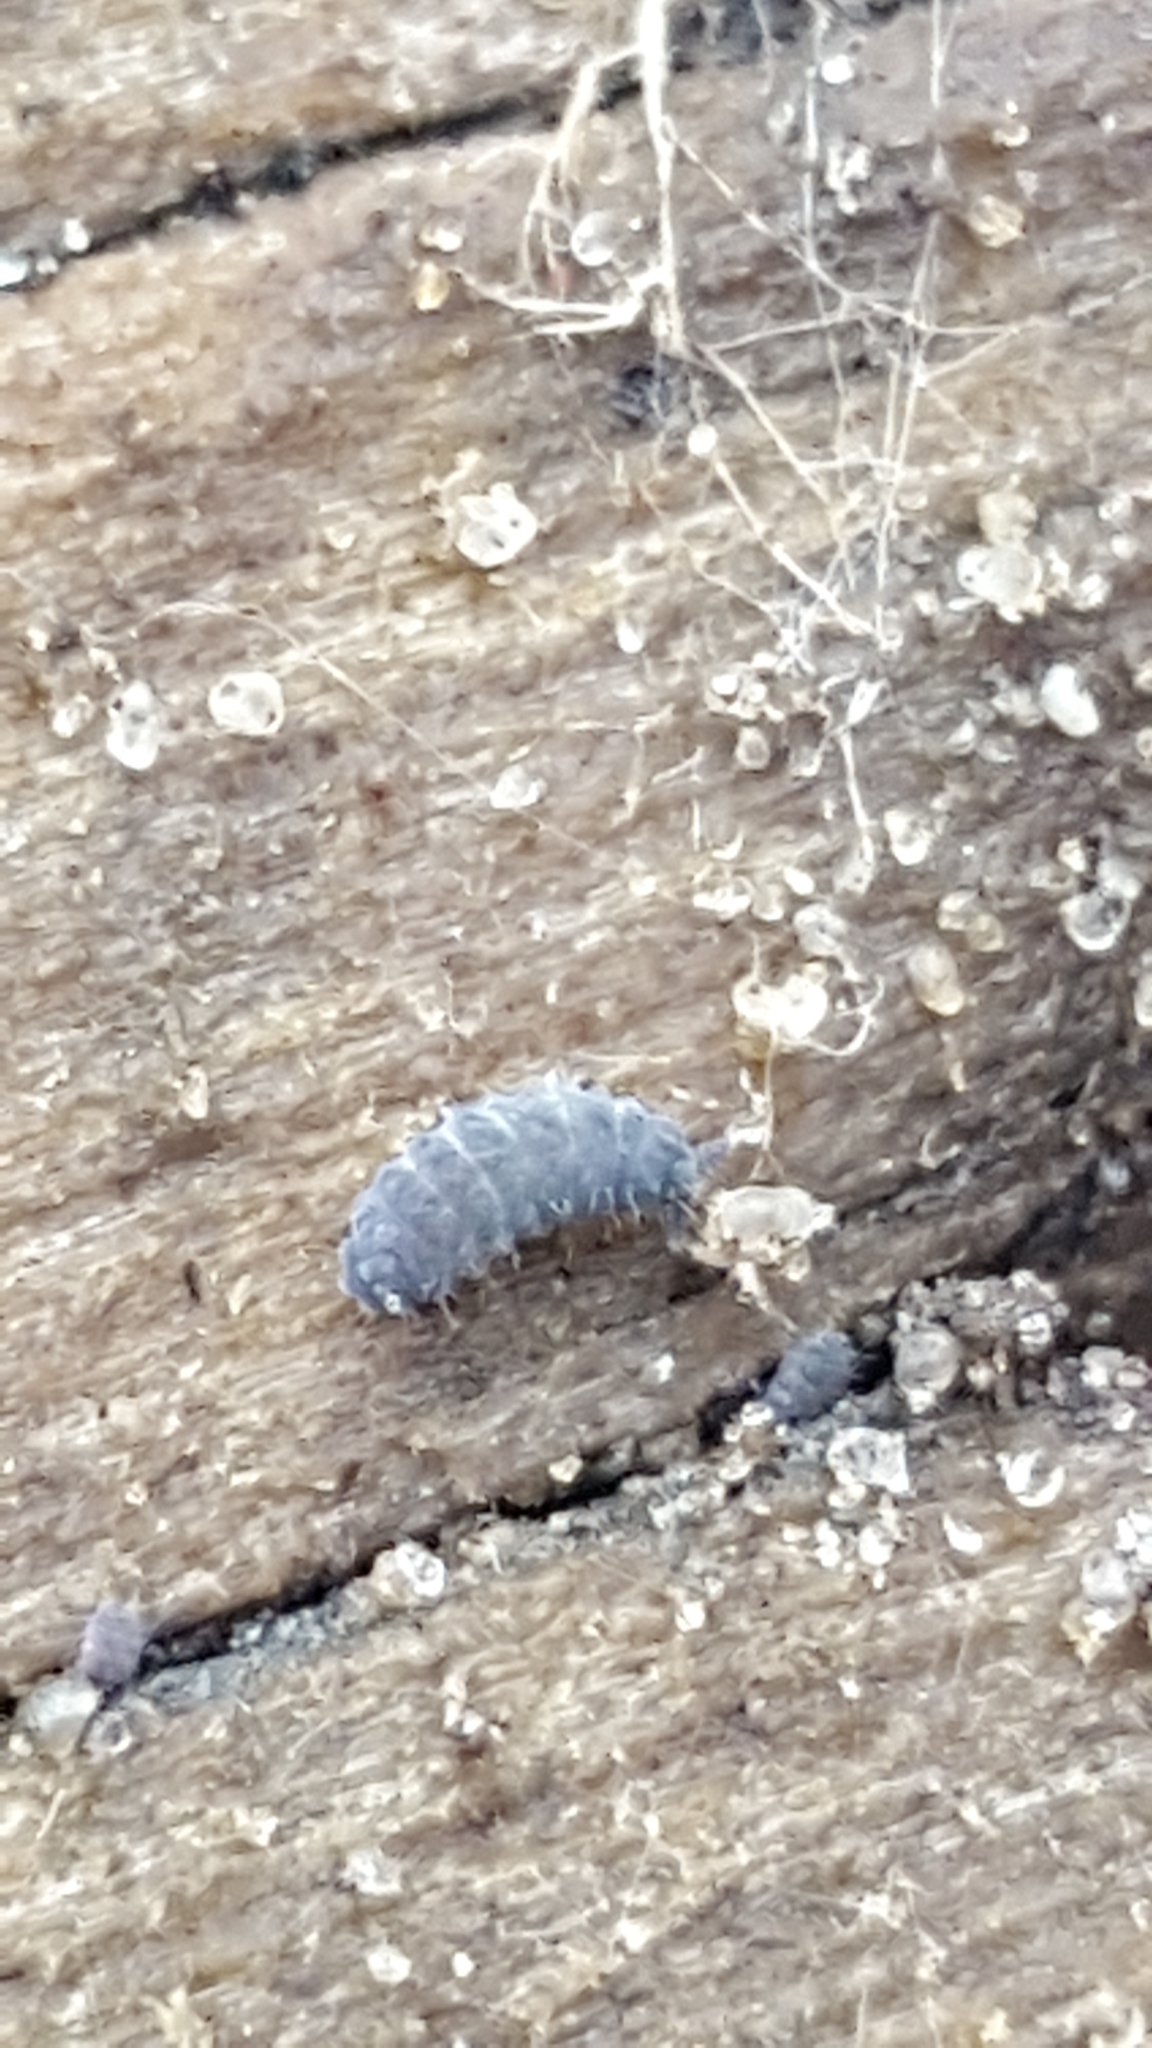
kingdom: Animalia
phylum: Arthropoda
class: Collembola
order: Poduromorpha
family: Neanuridae
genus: Neanura
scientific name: Neanura muscorum
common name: Springtail
